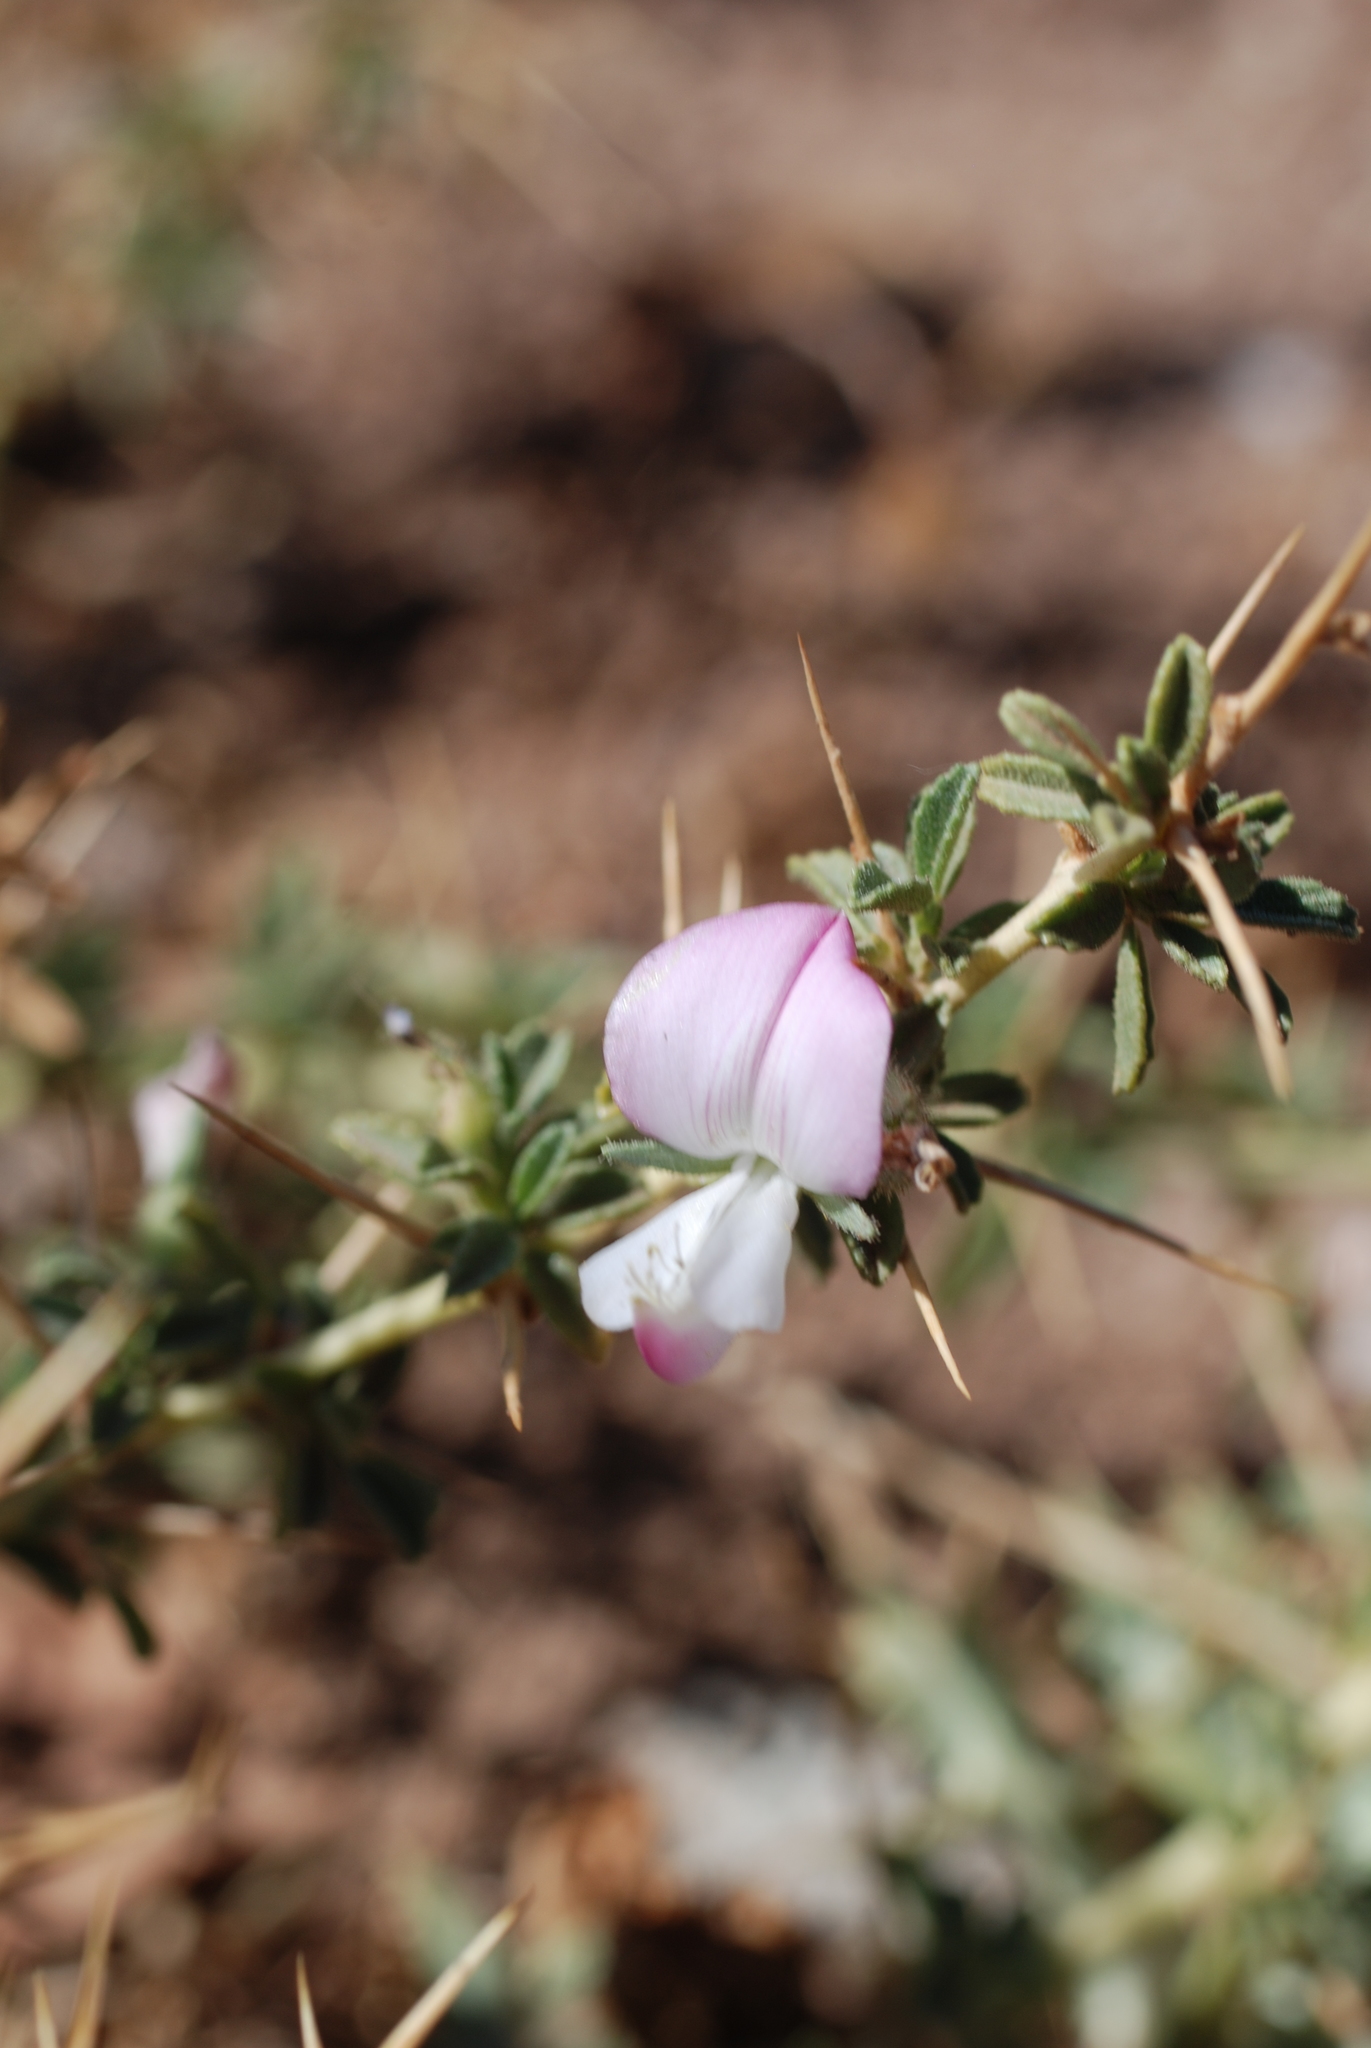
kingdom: Plantae
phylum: Tracheophyta
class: Magnoliopsida
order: Fabales
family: Fabaceae
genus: Ononis
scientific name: Ononis spinosa
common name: Spiny restharrow
